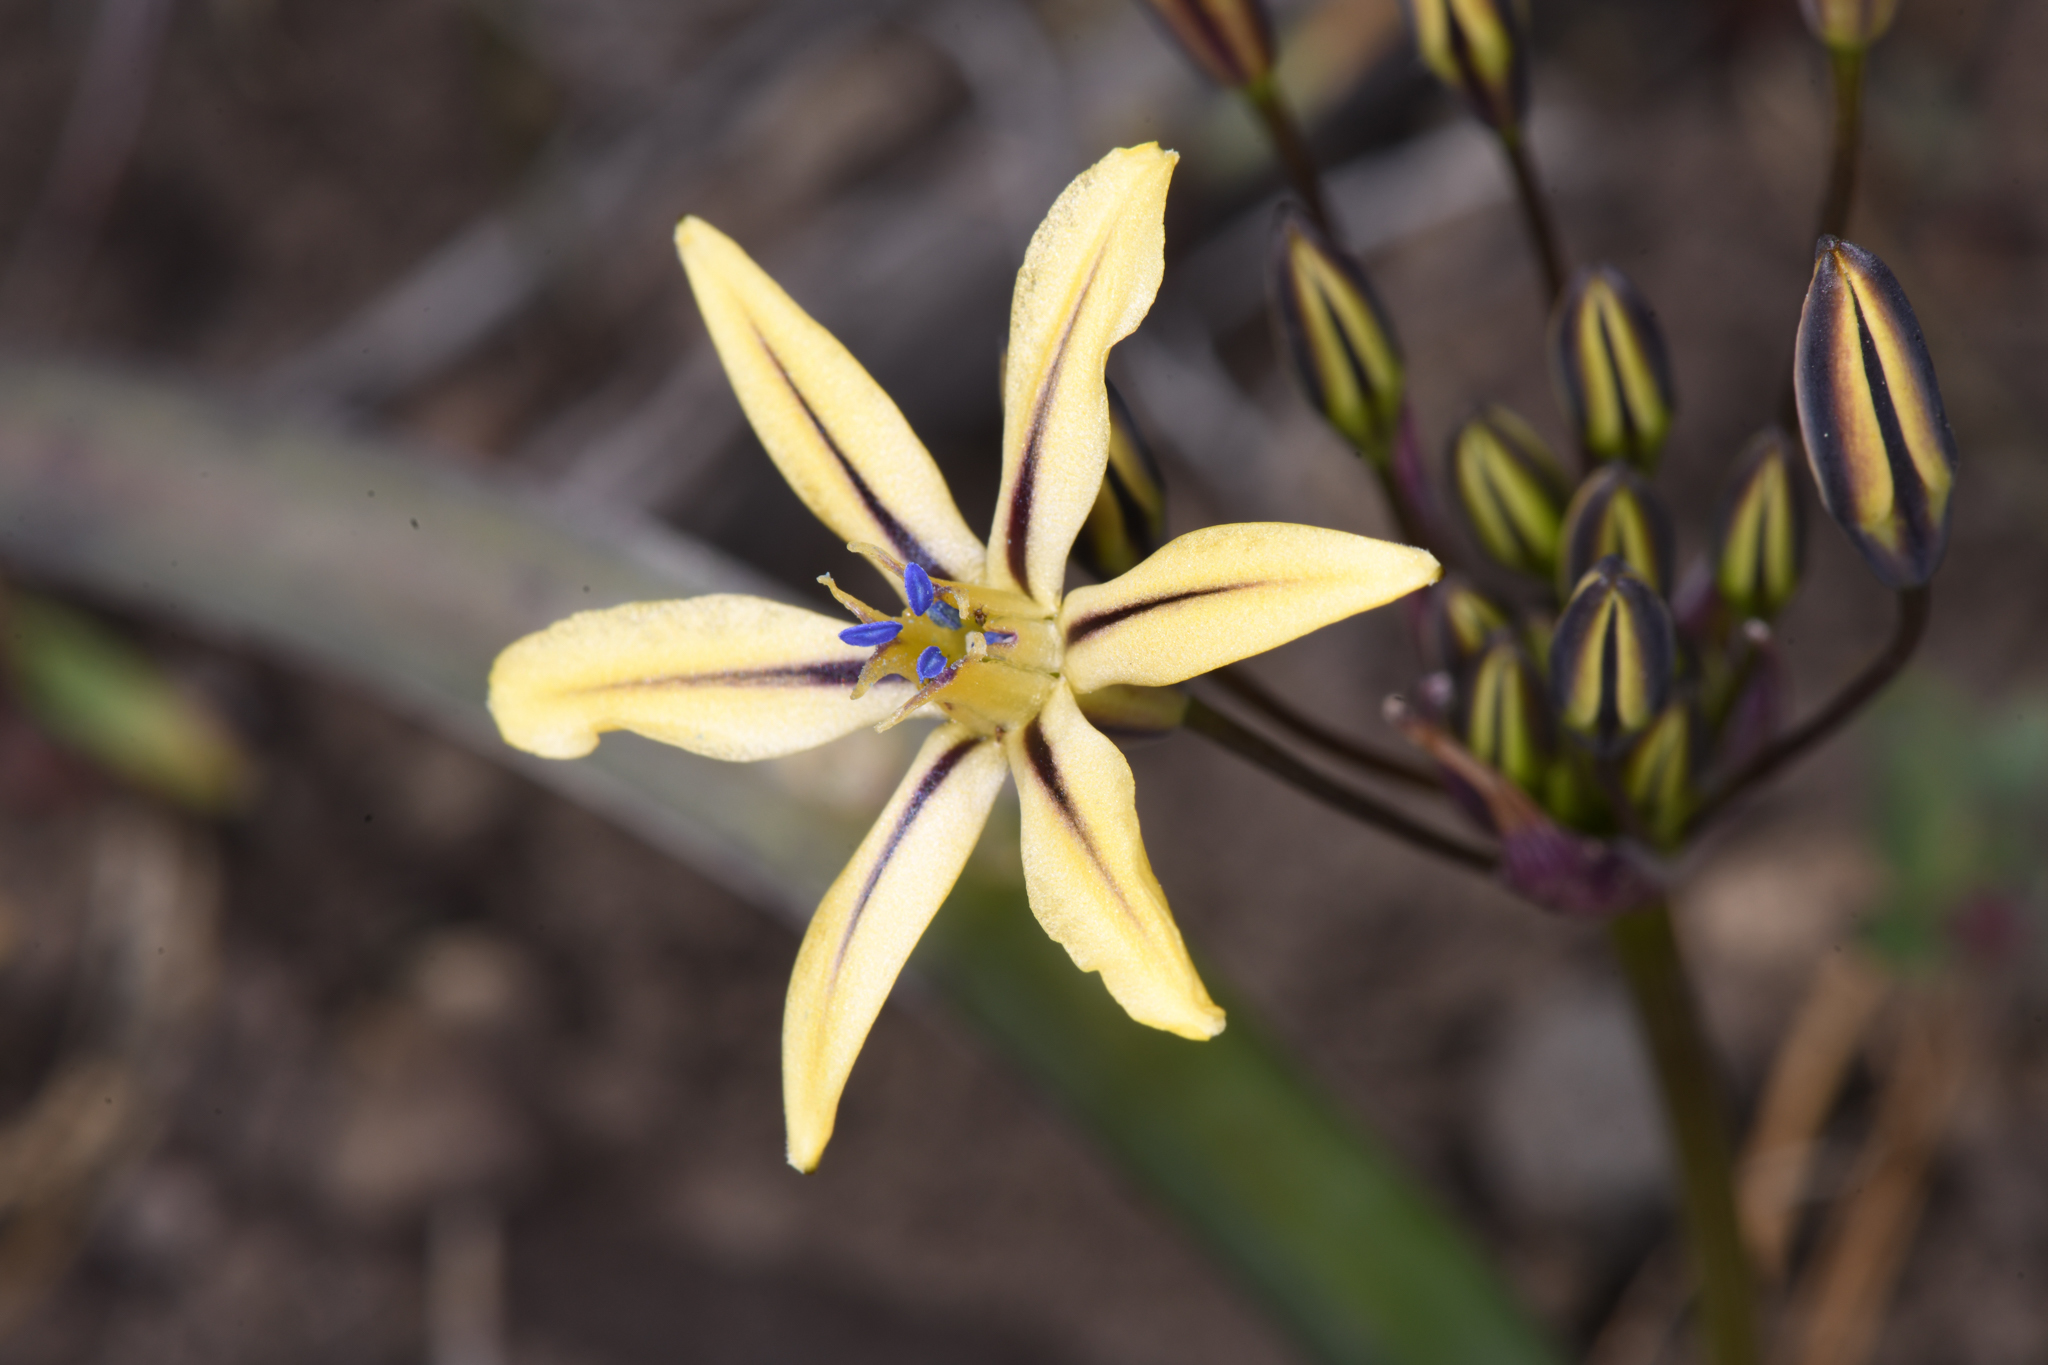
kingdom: Plantae
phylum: Tracheophyta
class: Liliopsida
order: Asparagales
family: Asparagaceae
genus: Triteleia
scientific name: Triteleia ixioides
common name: Yellow-brodiaea
